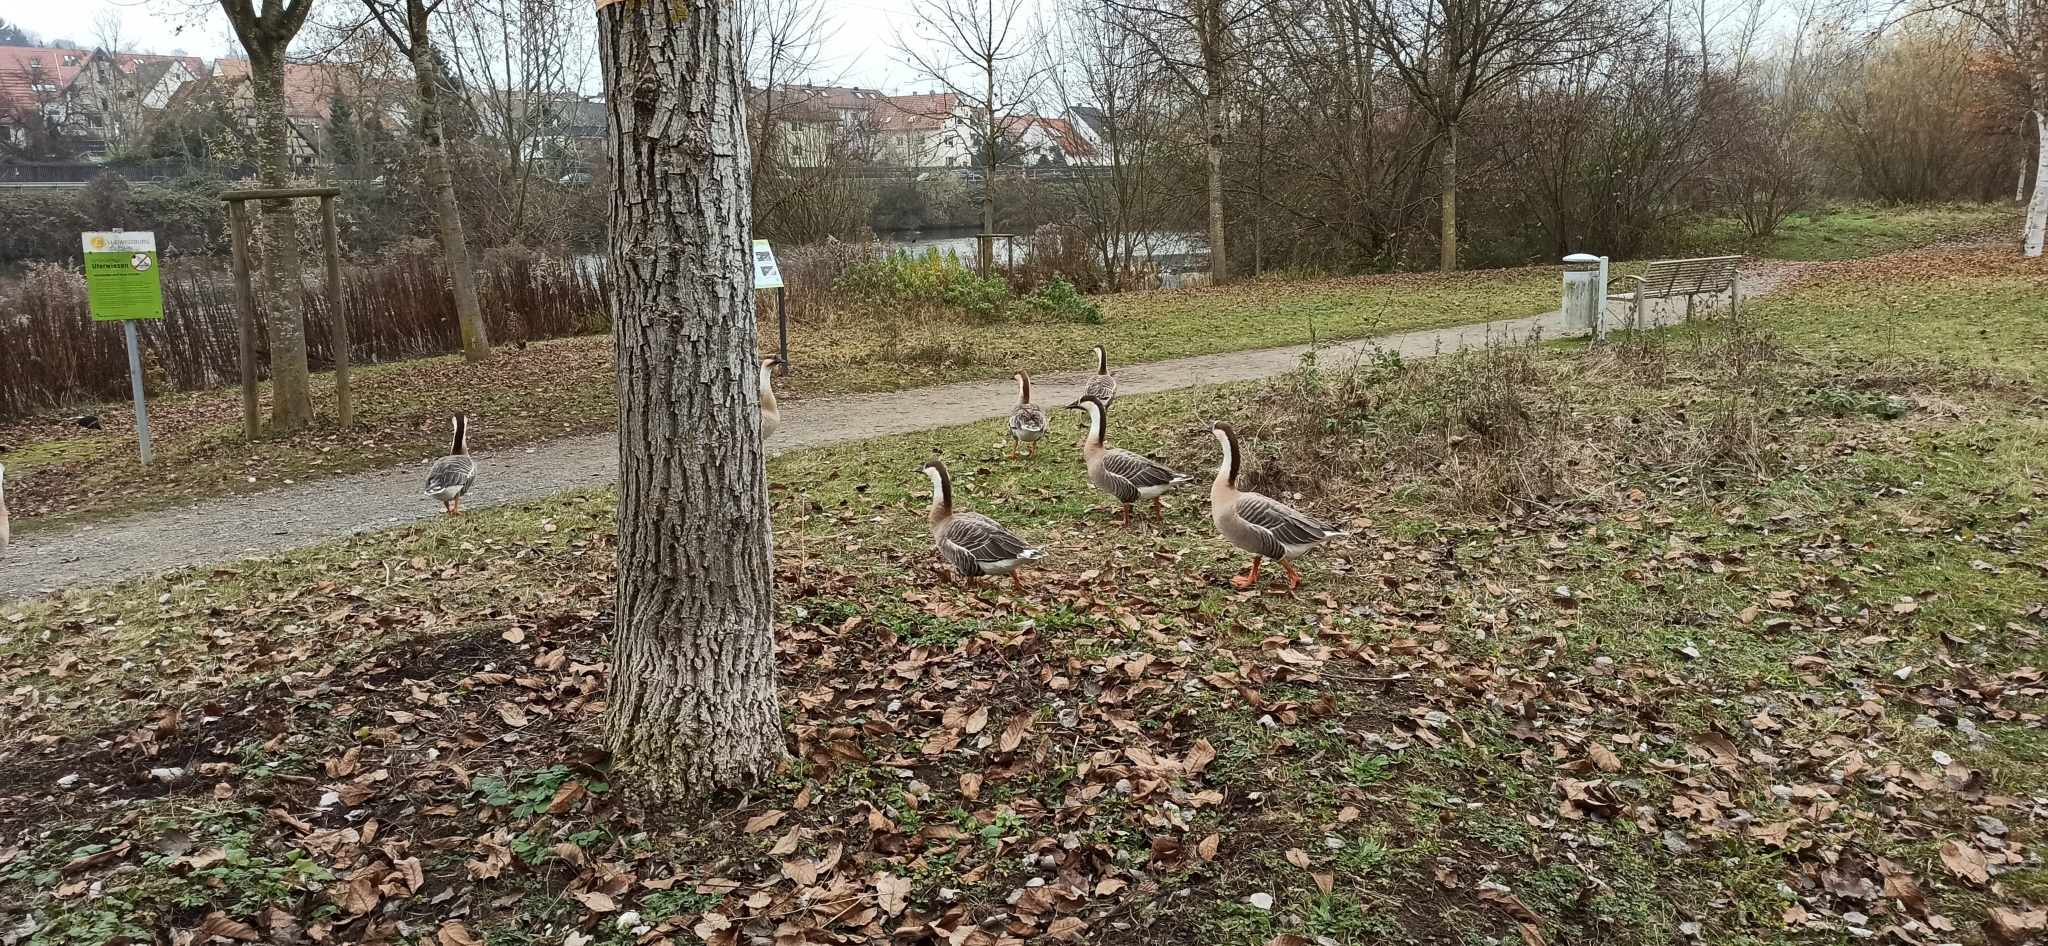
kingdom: Animalia
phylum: Chordata
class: Aves
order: Anseriformes
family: Anatidae
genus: Anser
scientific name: Anser cygnoides
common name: Swan goose
